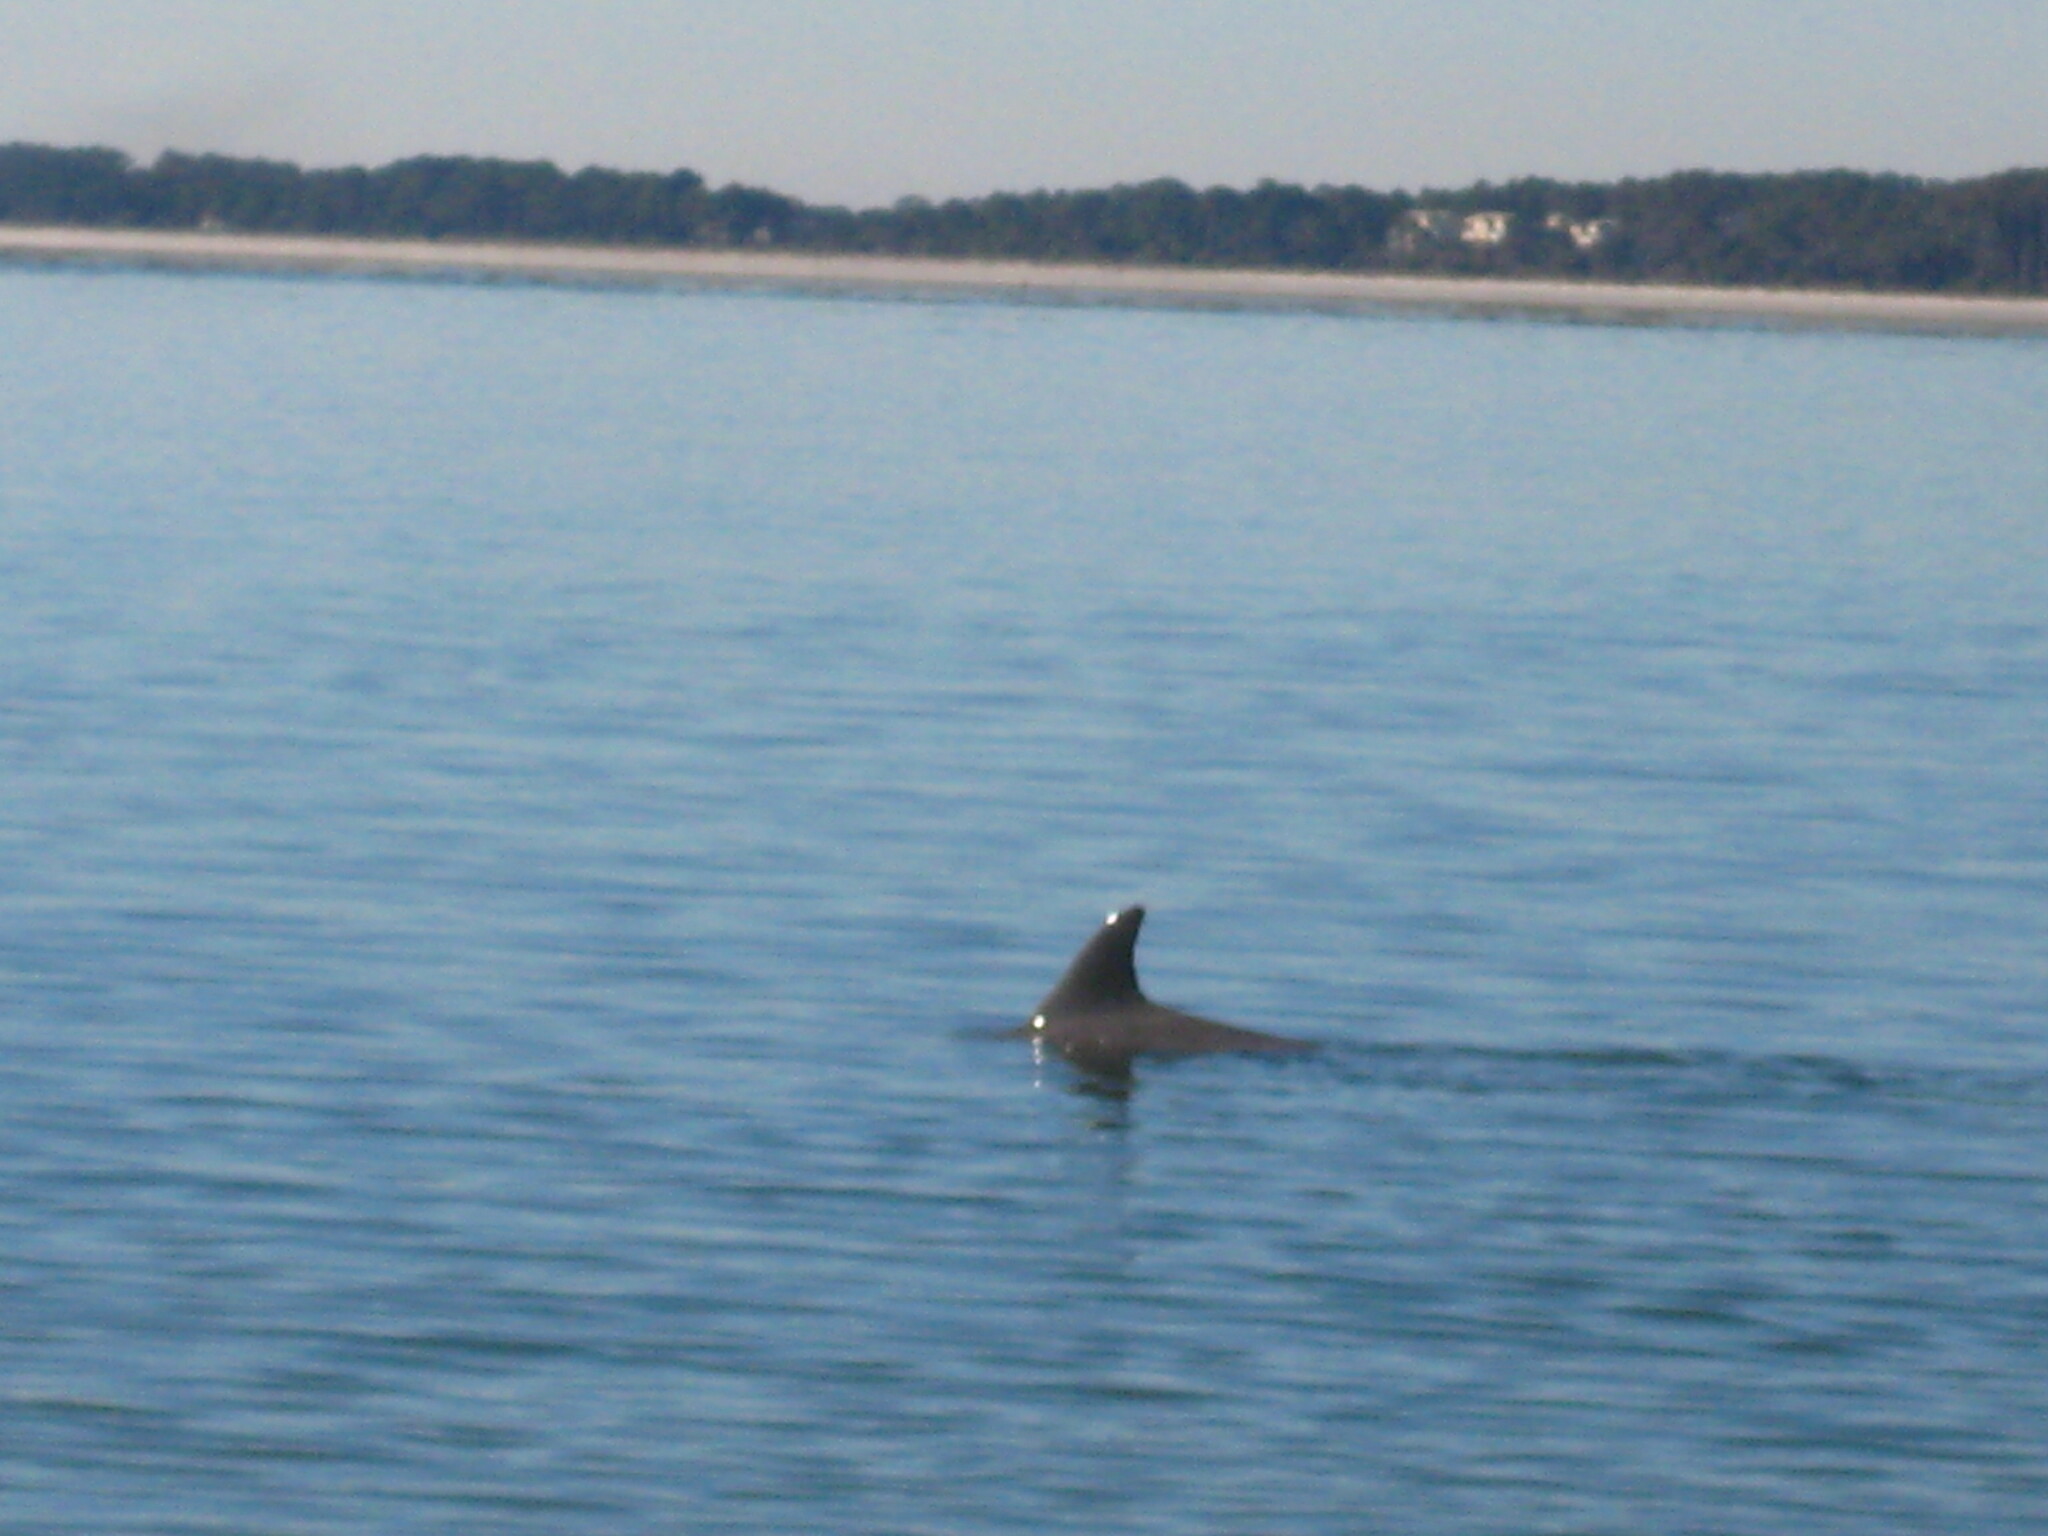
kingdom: Animalia
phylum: Chordata
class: Mammalia
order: Cetacea
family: Delphinidae
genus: Tursiops
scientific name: Tursiops truncatus
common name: Bottlenose dolphin
